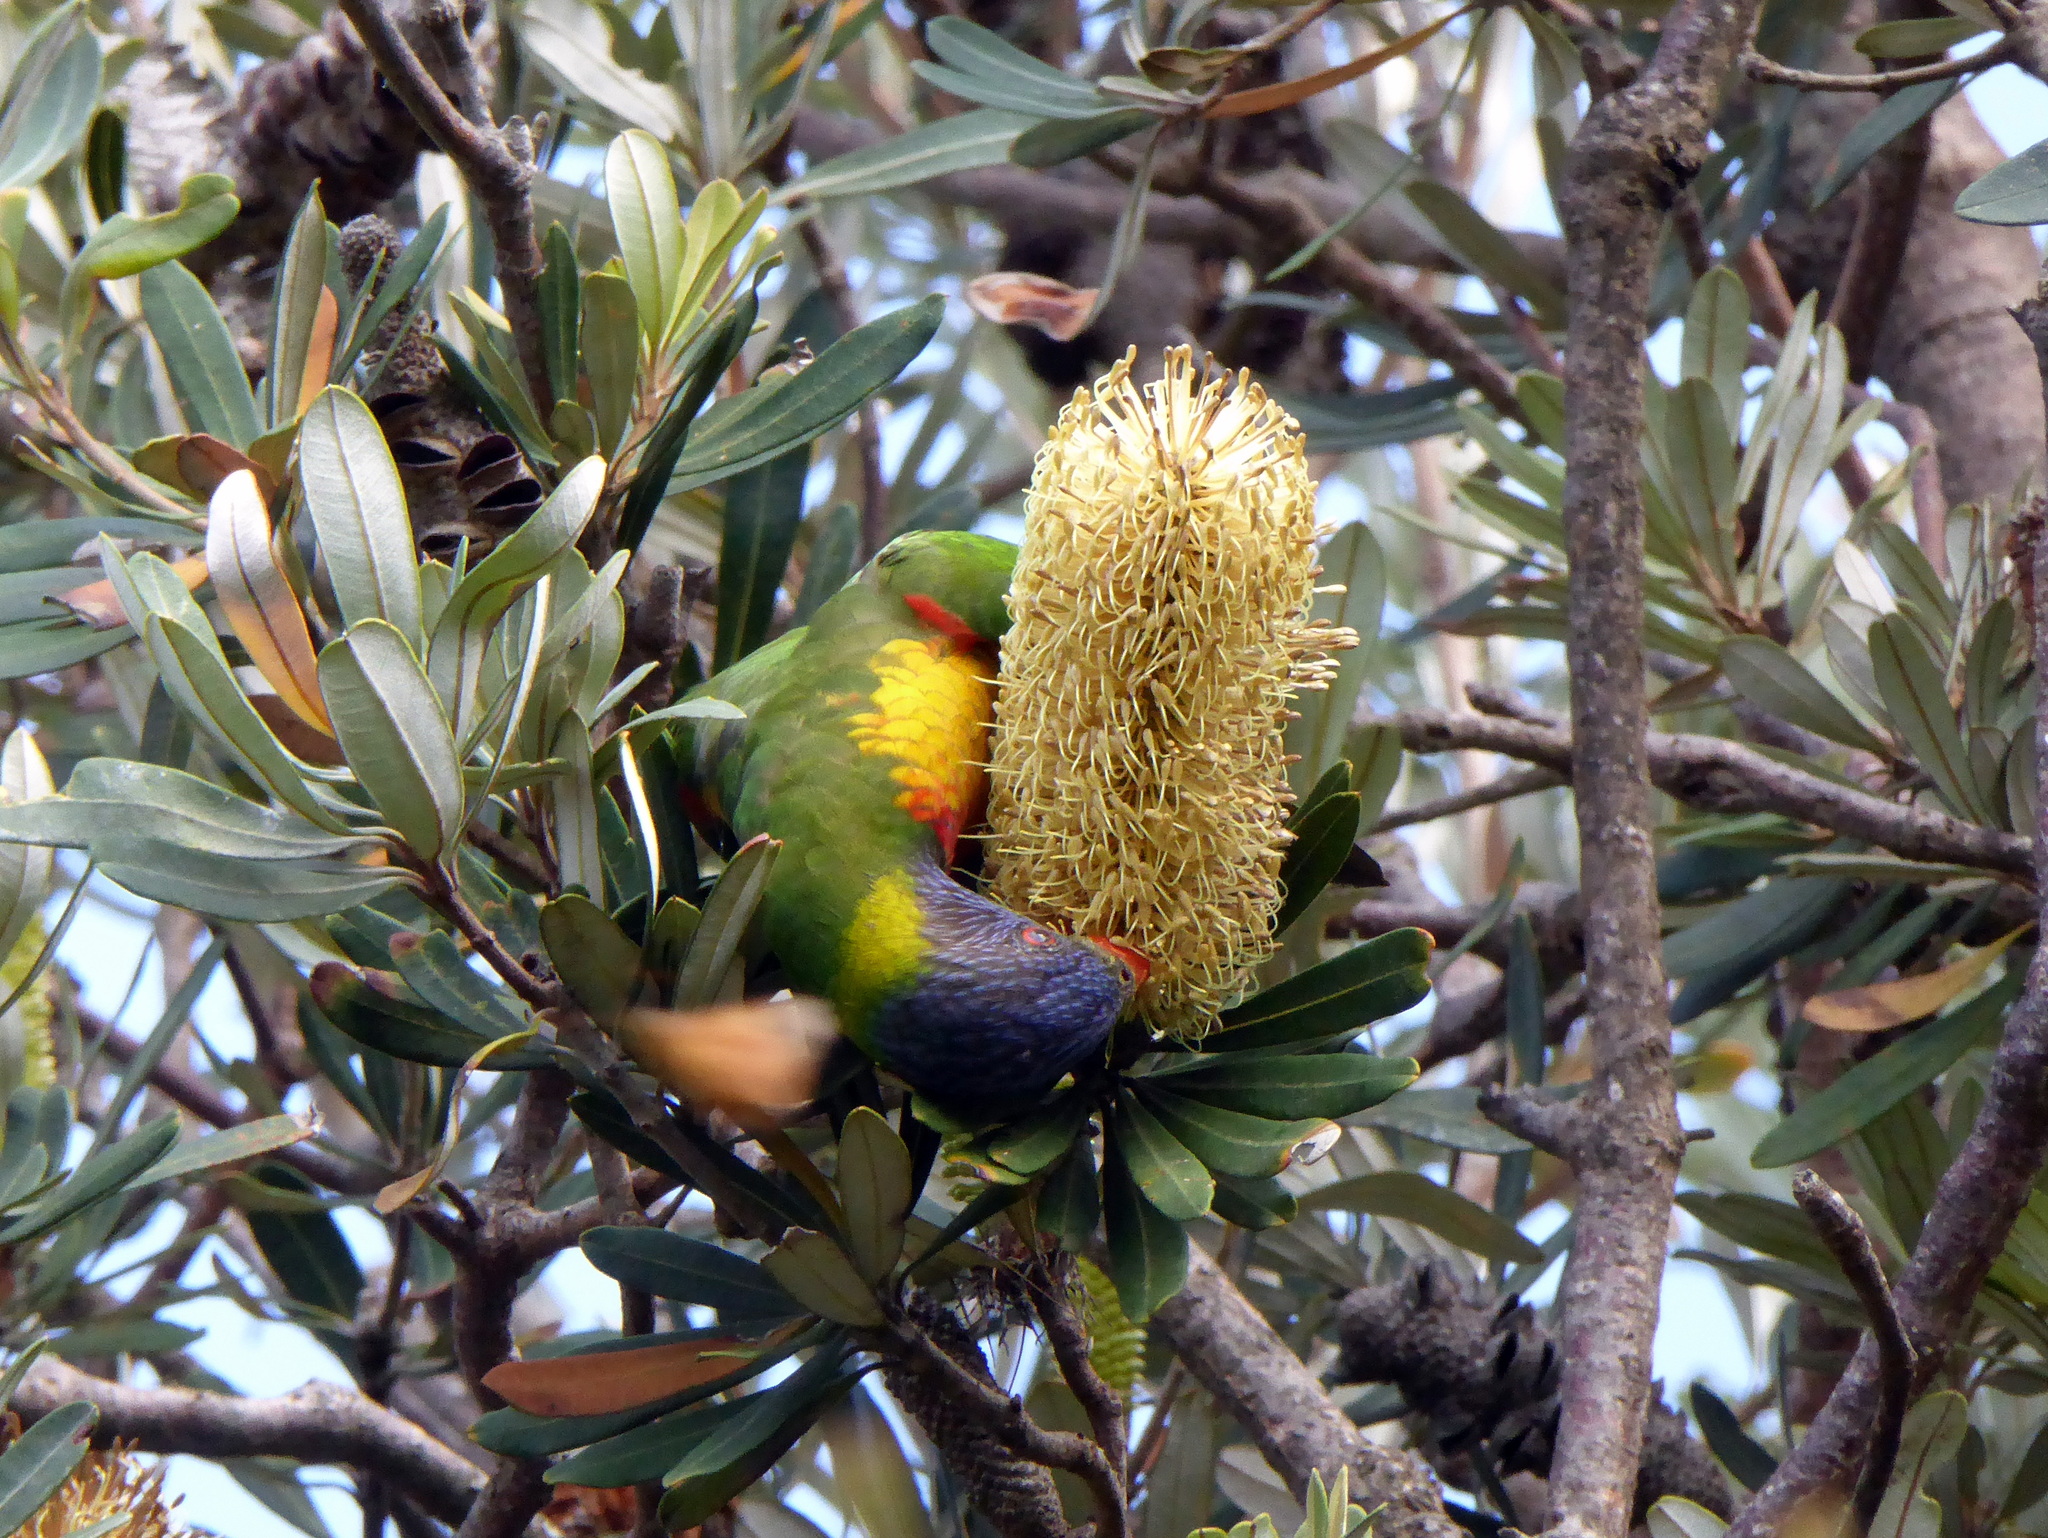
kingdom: Animalia
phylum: Chordata
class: Aves
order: Psittaciformes
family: Psittacidae
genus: Trichoglossus
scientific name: Trichoglossus haematodus
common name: Coconut lorikeet
